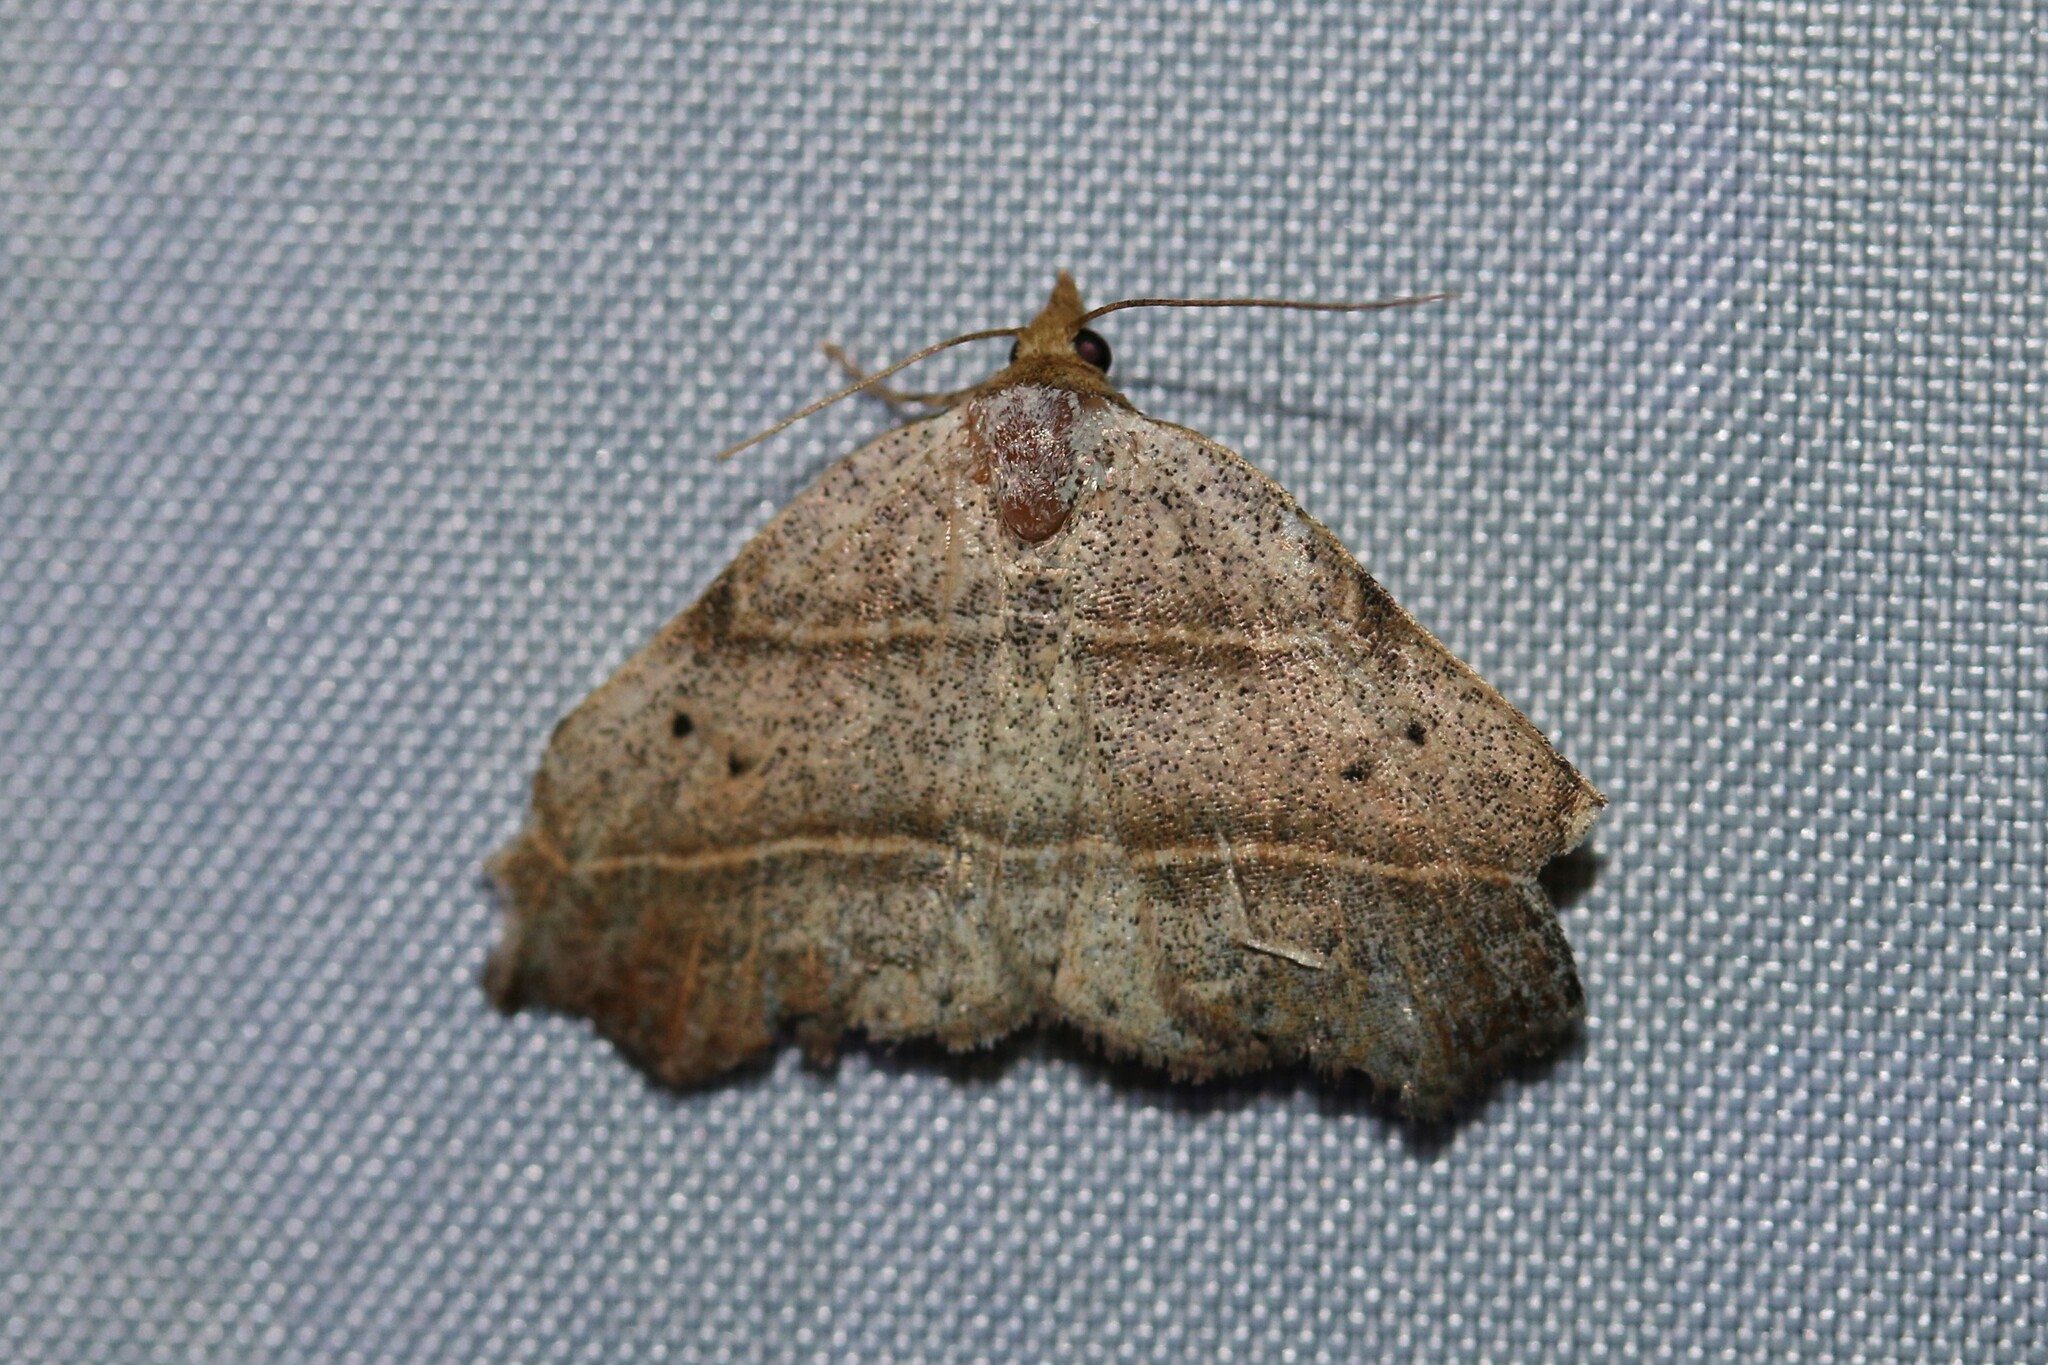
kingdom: Animalia
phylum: Arthropoda
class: Insecta
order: Lepidoptera
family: Erebidae
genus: Laspeyria
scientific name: Laspeyria flexula
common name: Beautiful hook-tip
